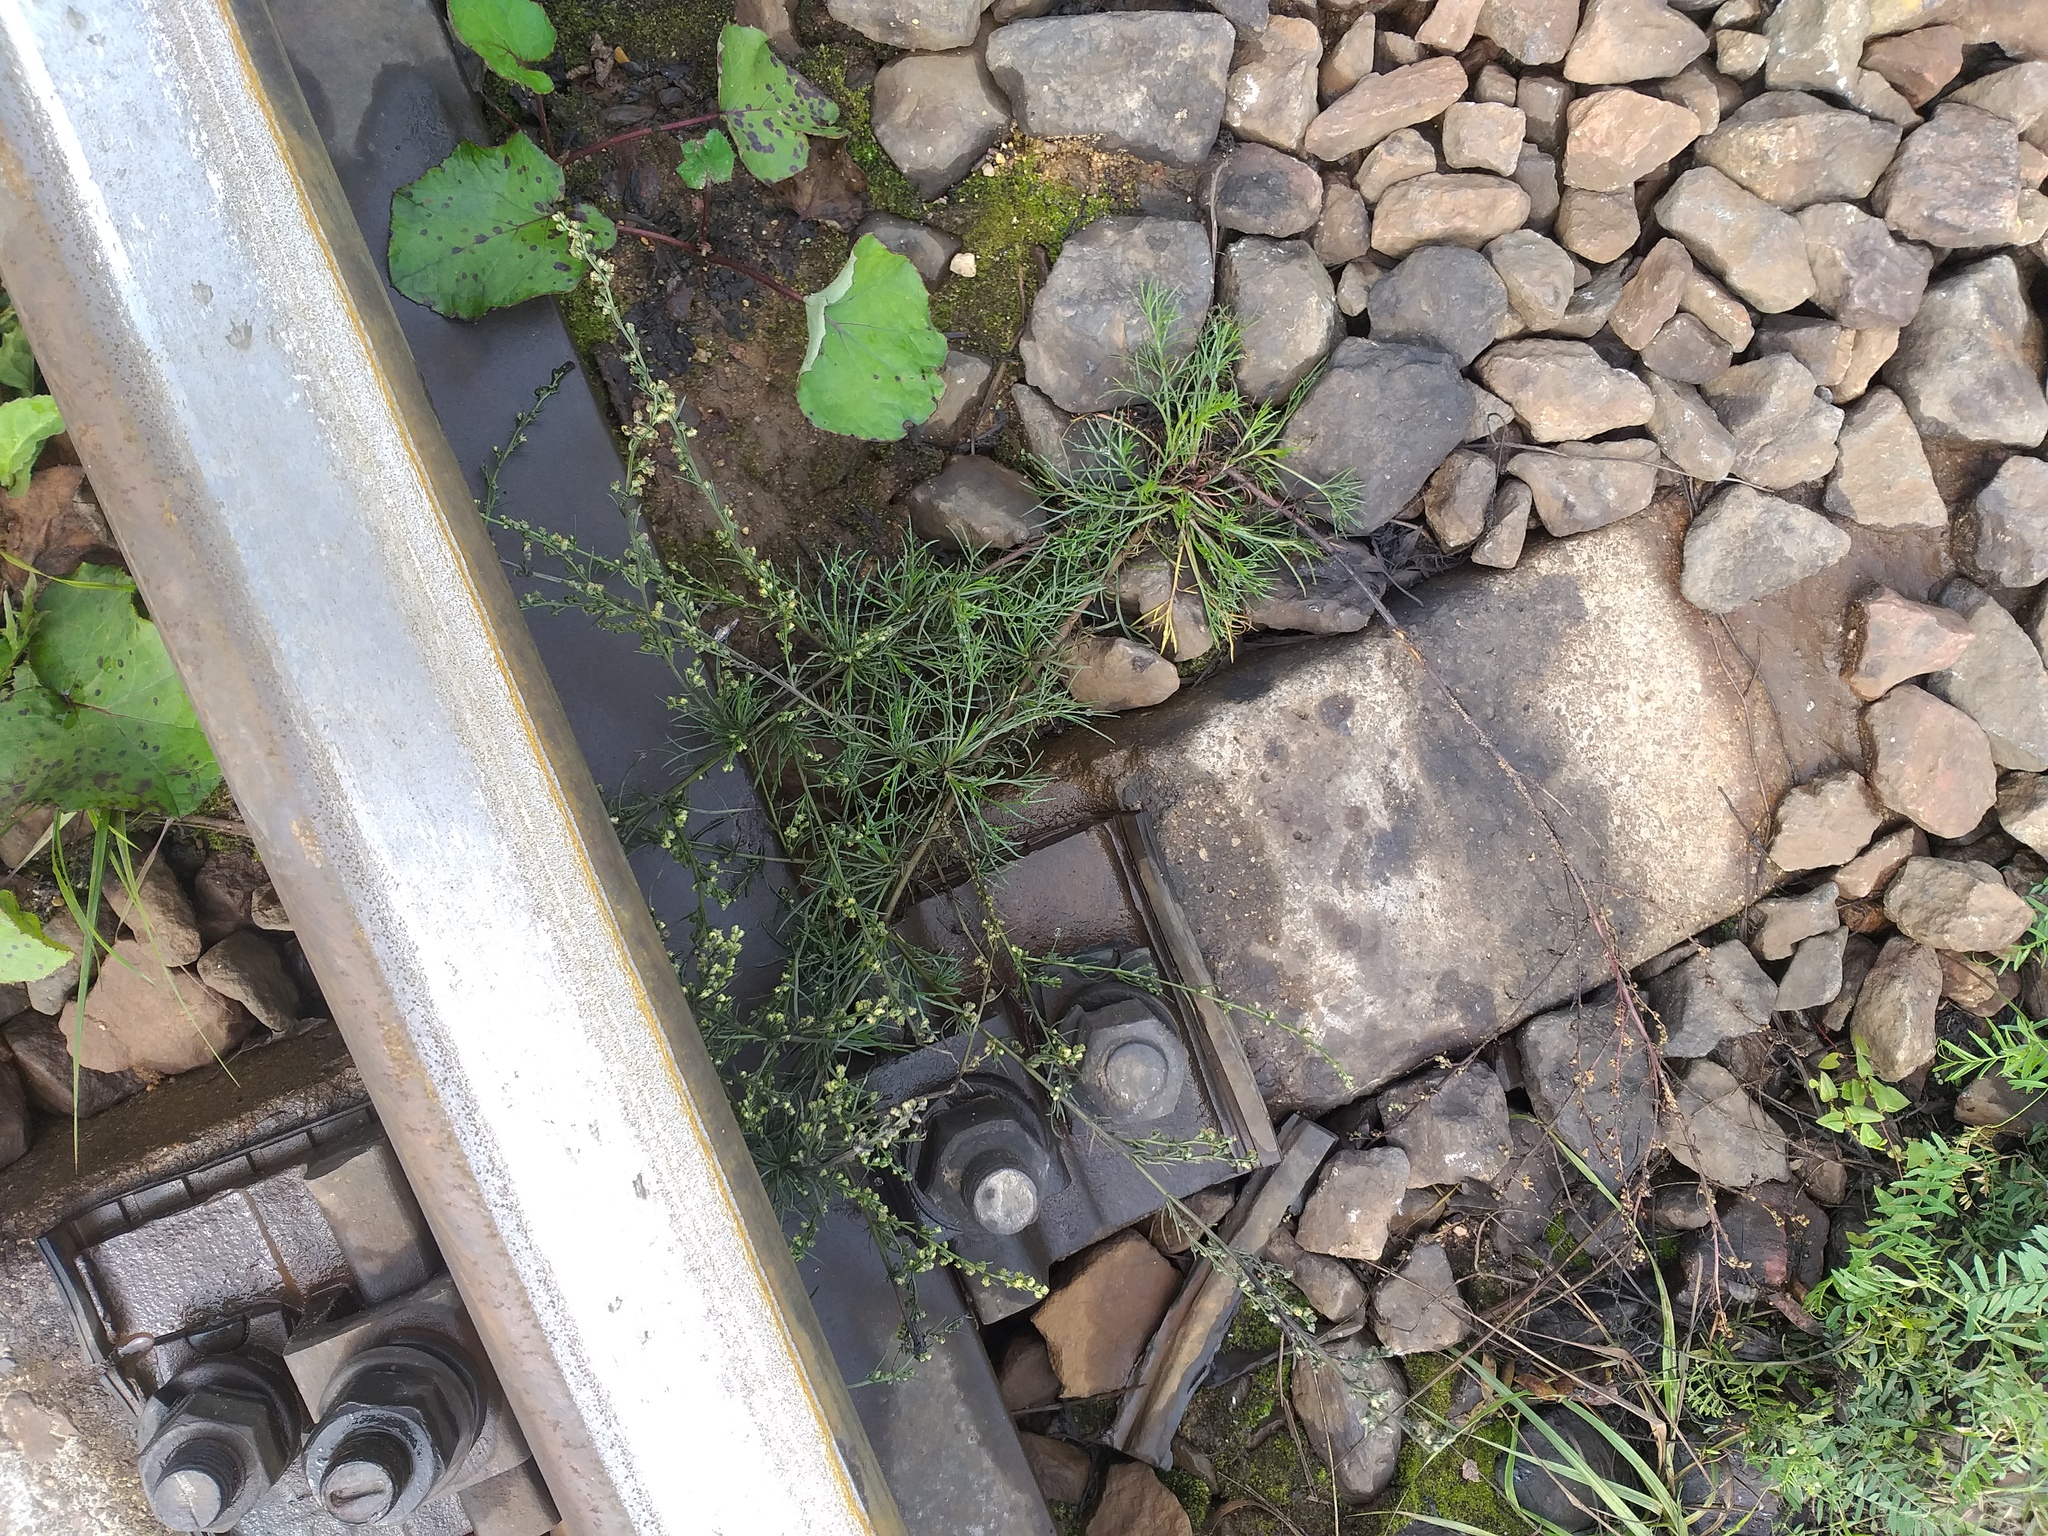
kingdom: Plantae
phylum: Tracheophyta
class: Magnoliopsida
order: Asterales
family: Asteraceae
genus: Artemisia
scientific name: Artemisia campestris
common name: Field wormwood
